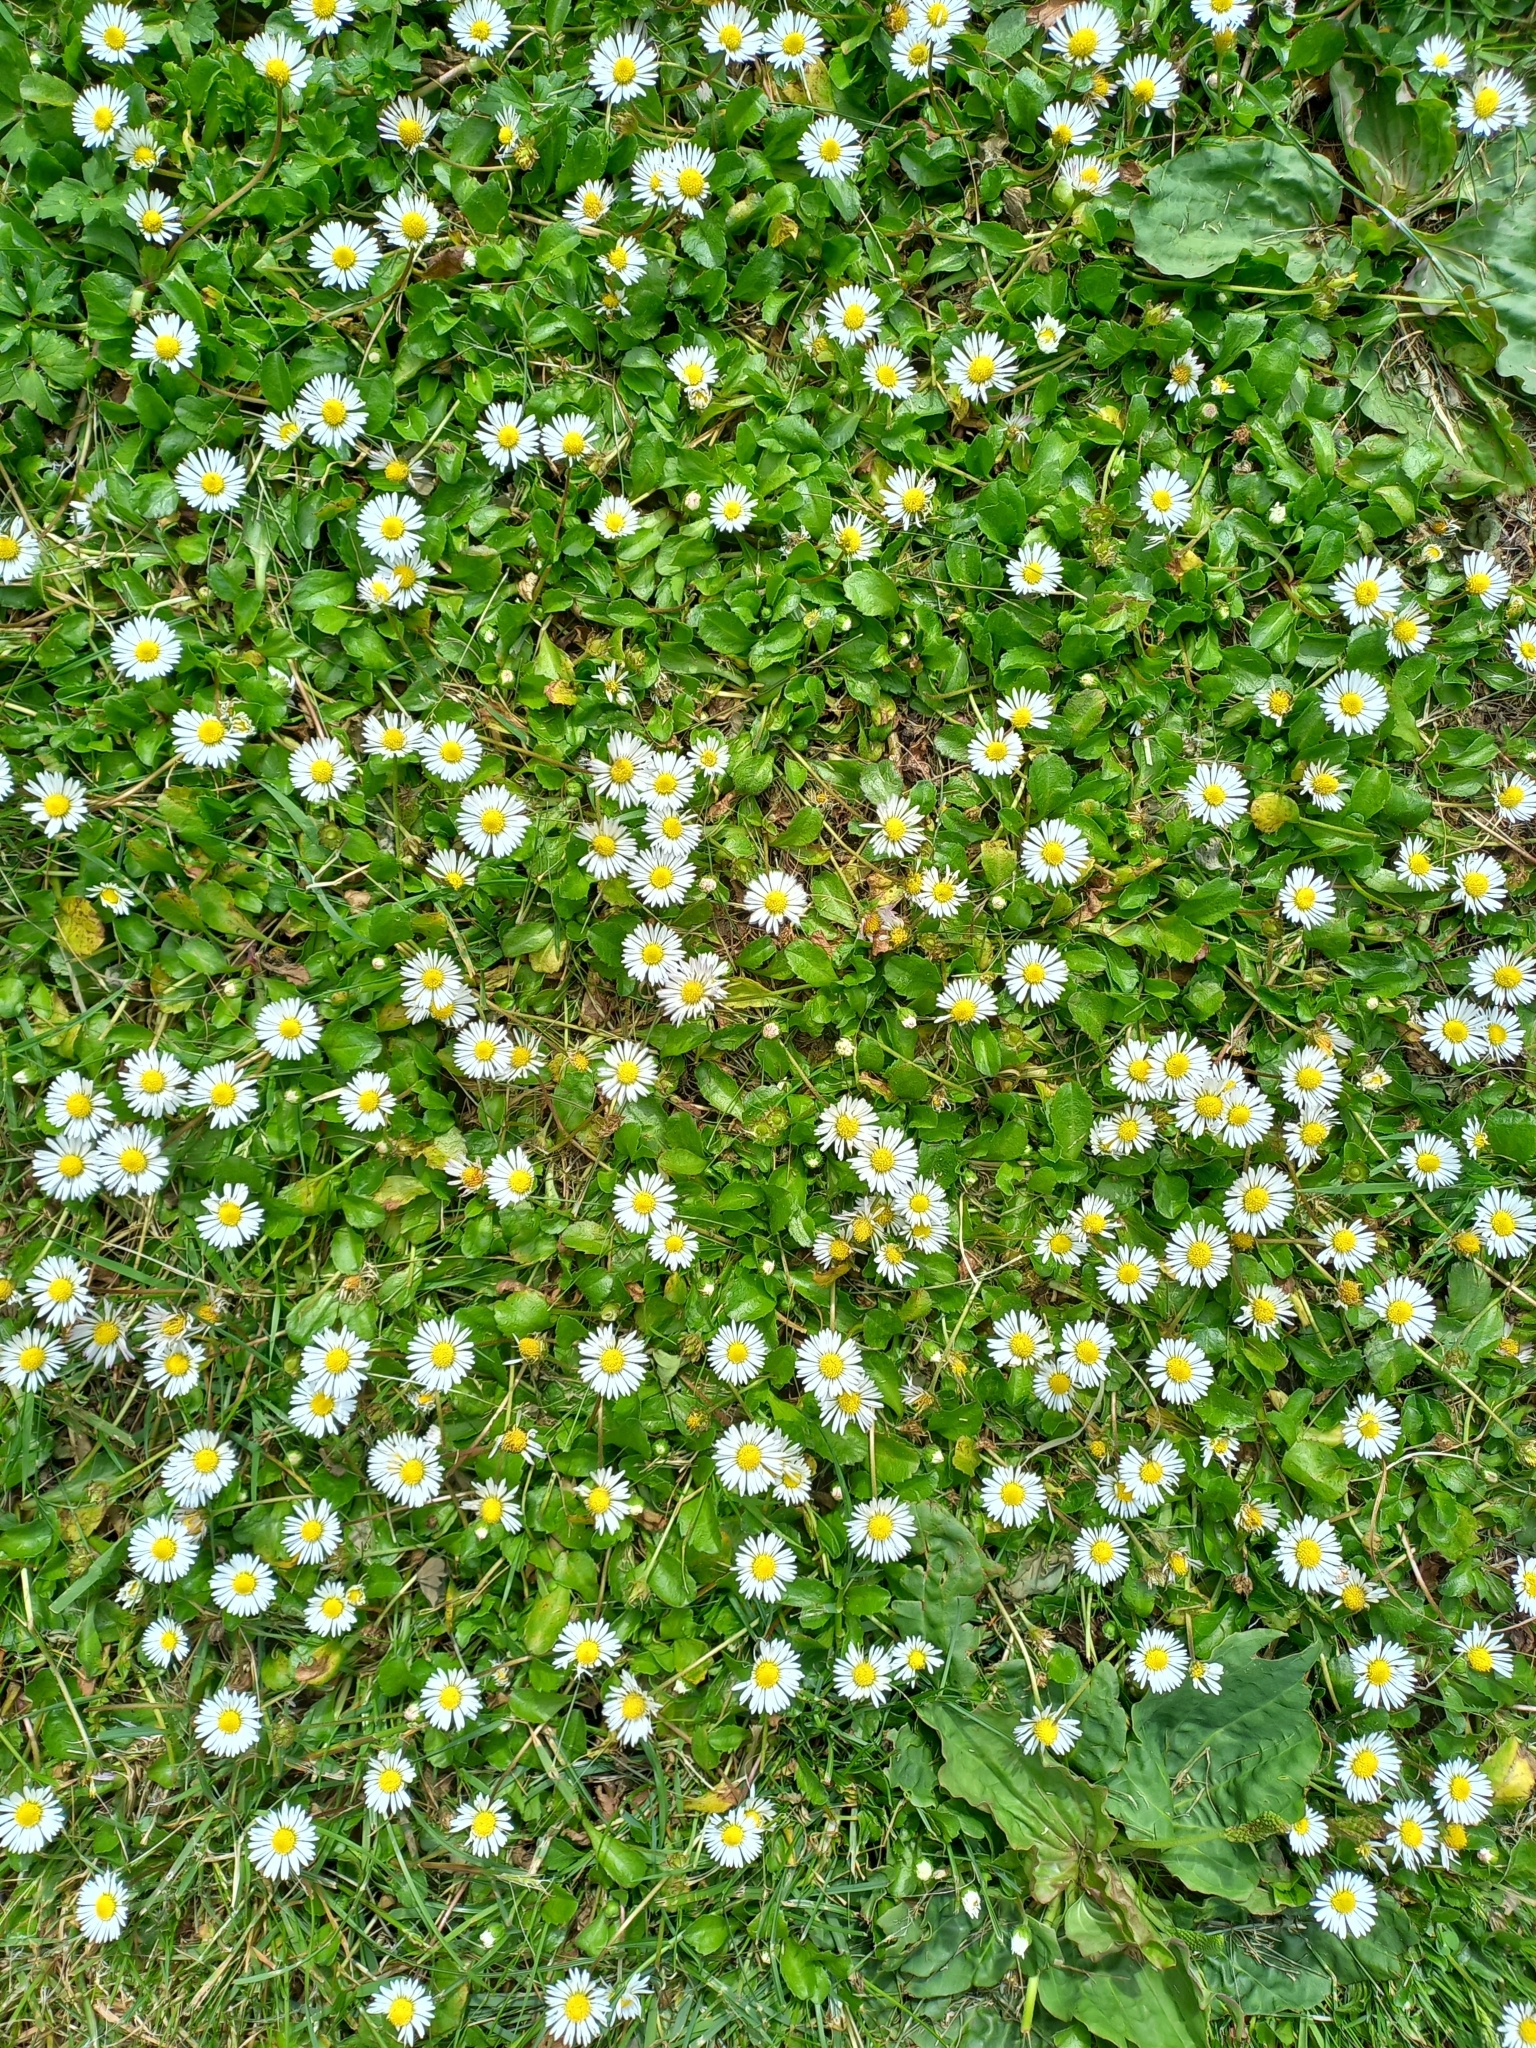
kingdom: Plantae
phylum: Tracheophyta
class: Magnoliopsida
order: Asterales
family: Asteraceae
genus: Bellis
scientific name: Bellis perennis
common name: Lawndaisy
